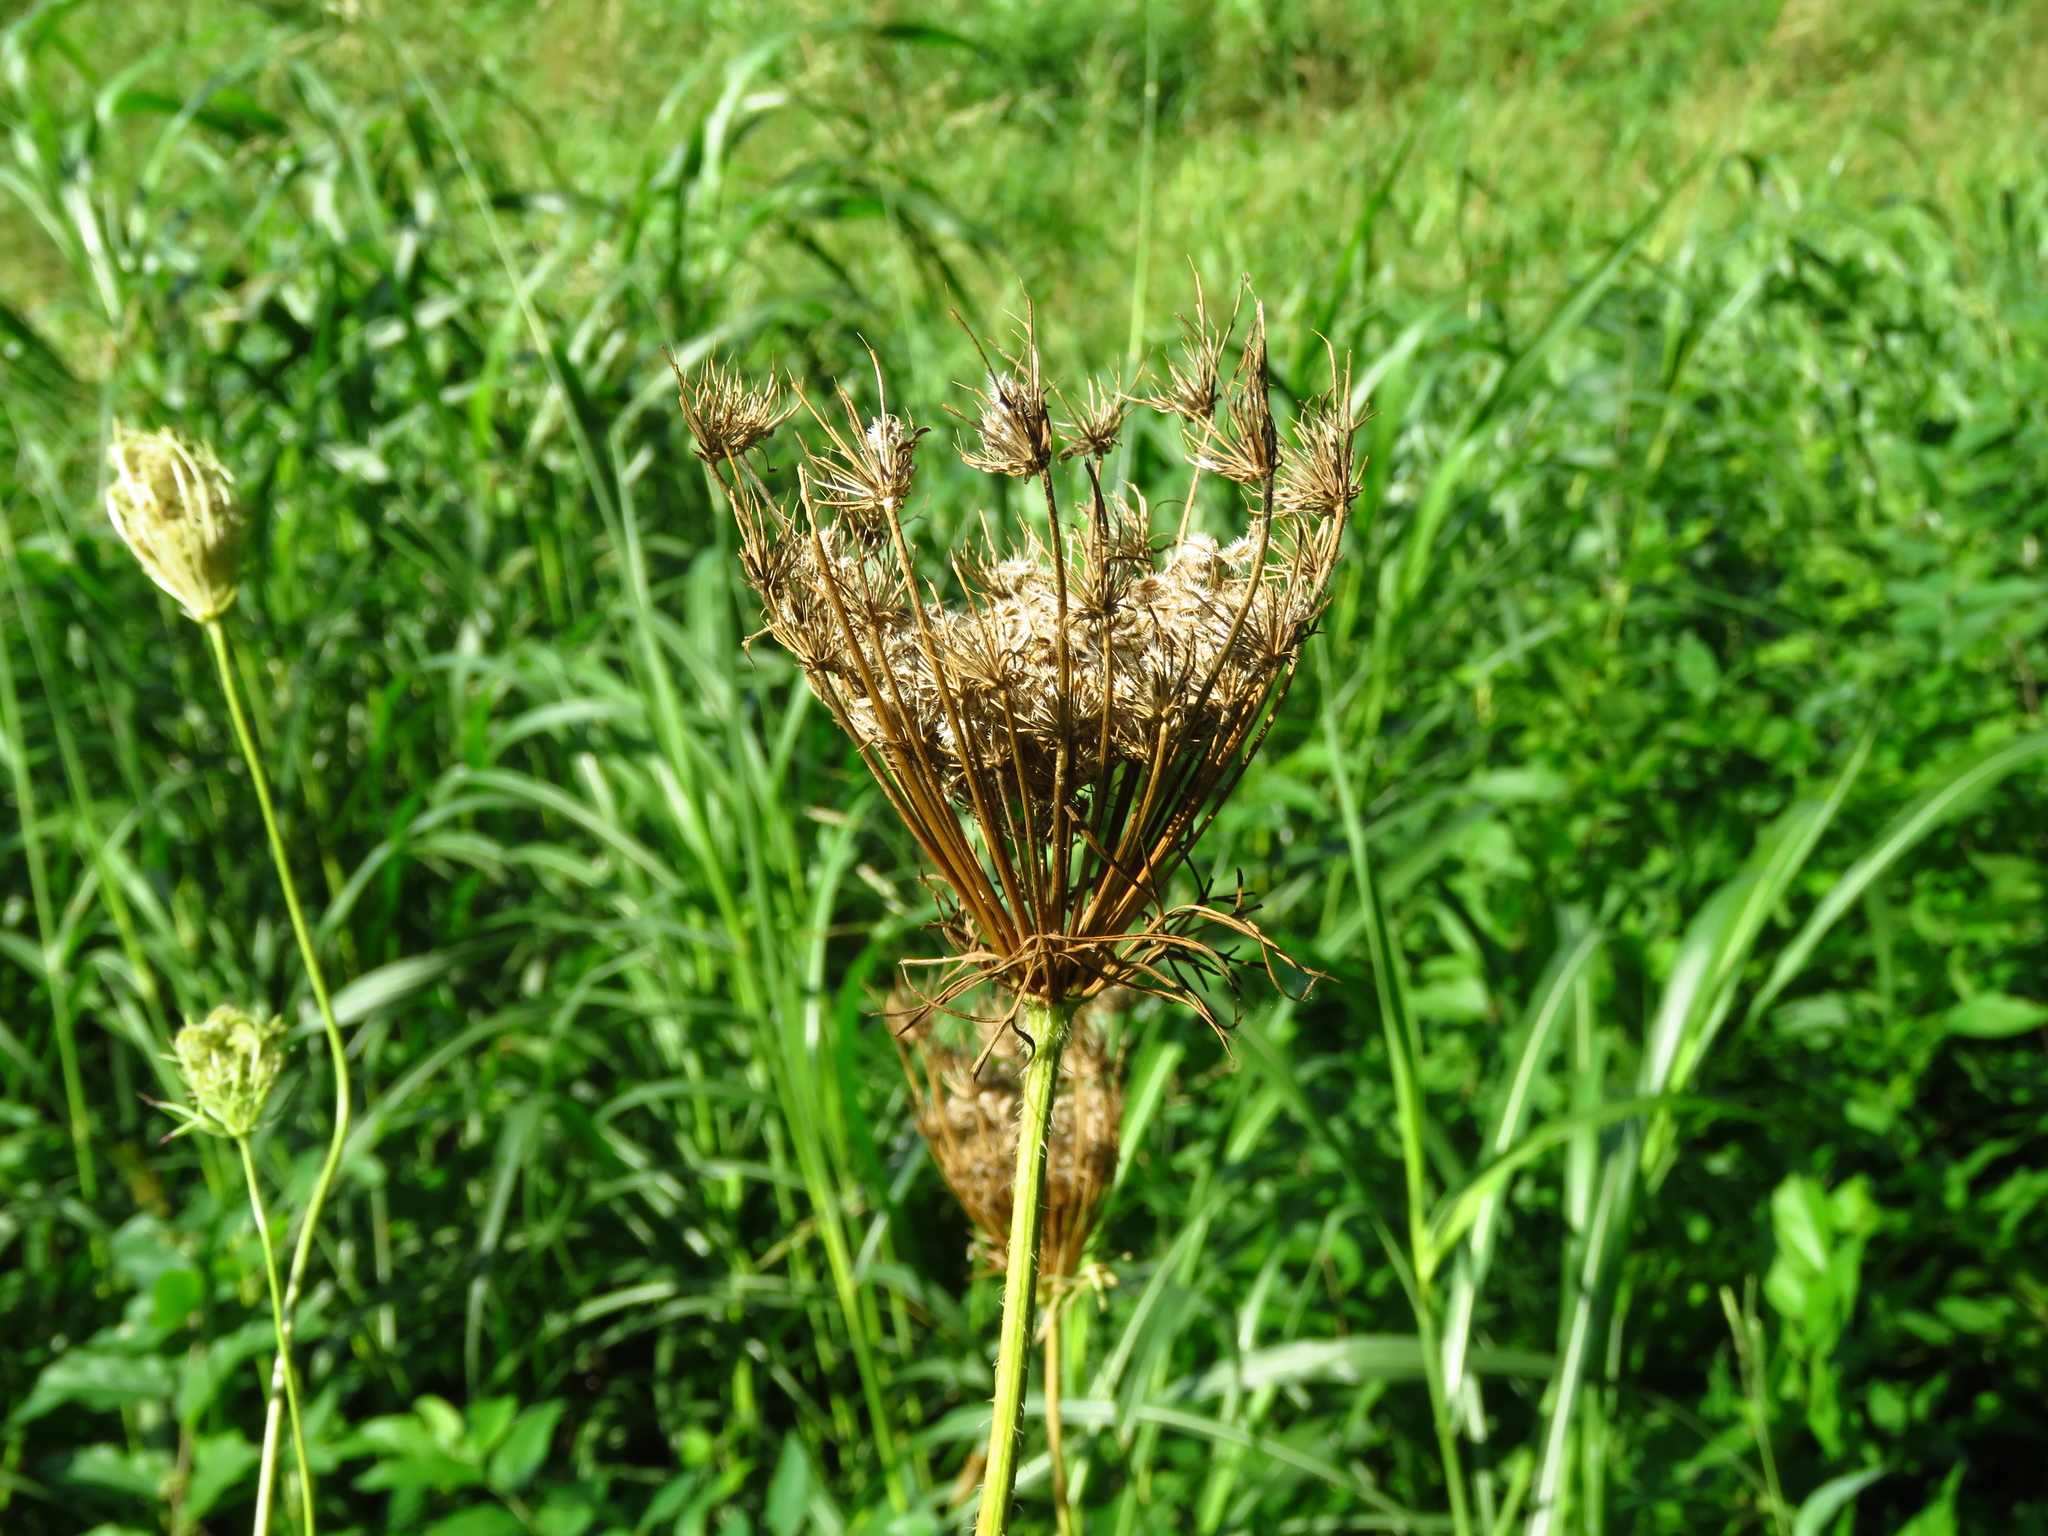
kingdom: Plantae
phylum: Tracheophyta
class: Magnoliopsida
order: Apiales
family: Apiaceae
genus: Daucus
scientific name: Daucus carota
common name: Wild carrot
